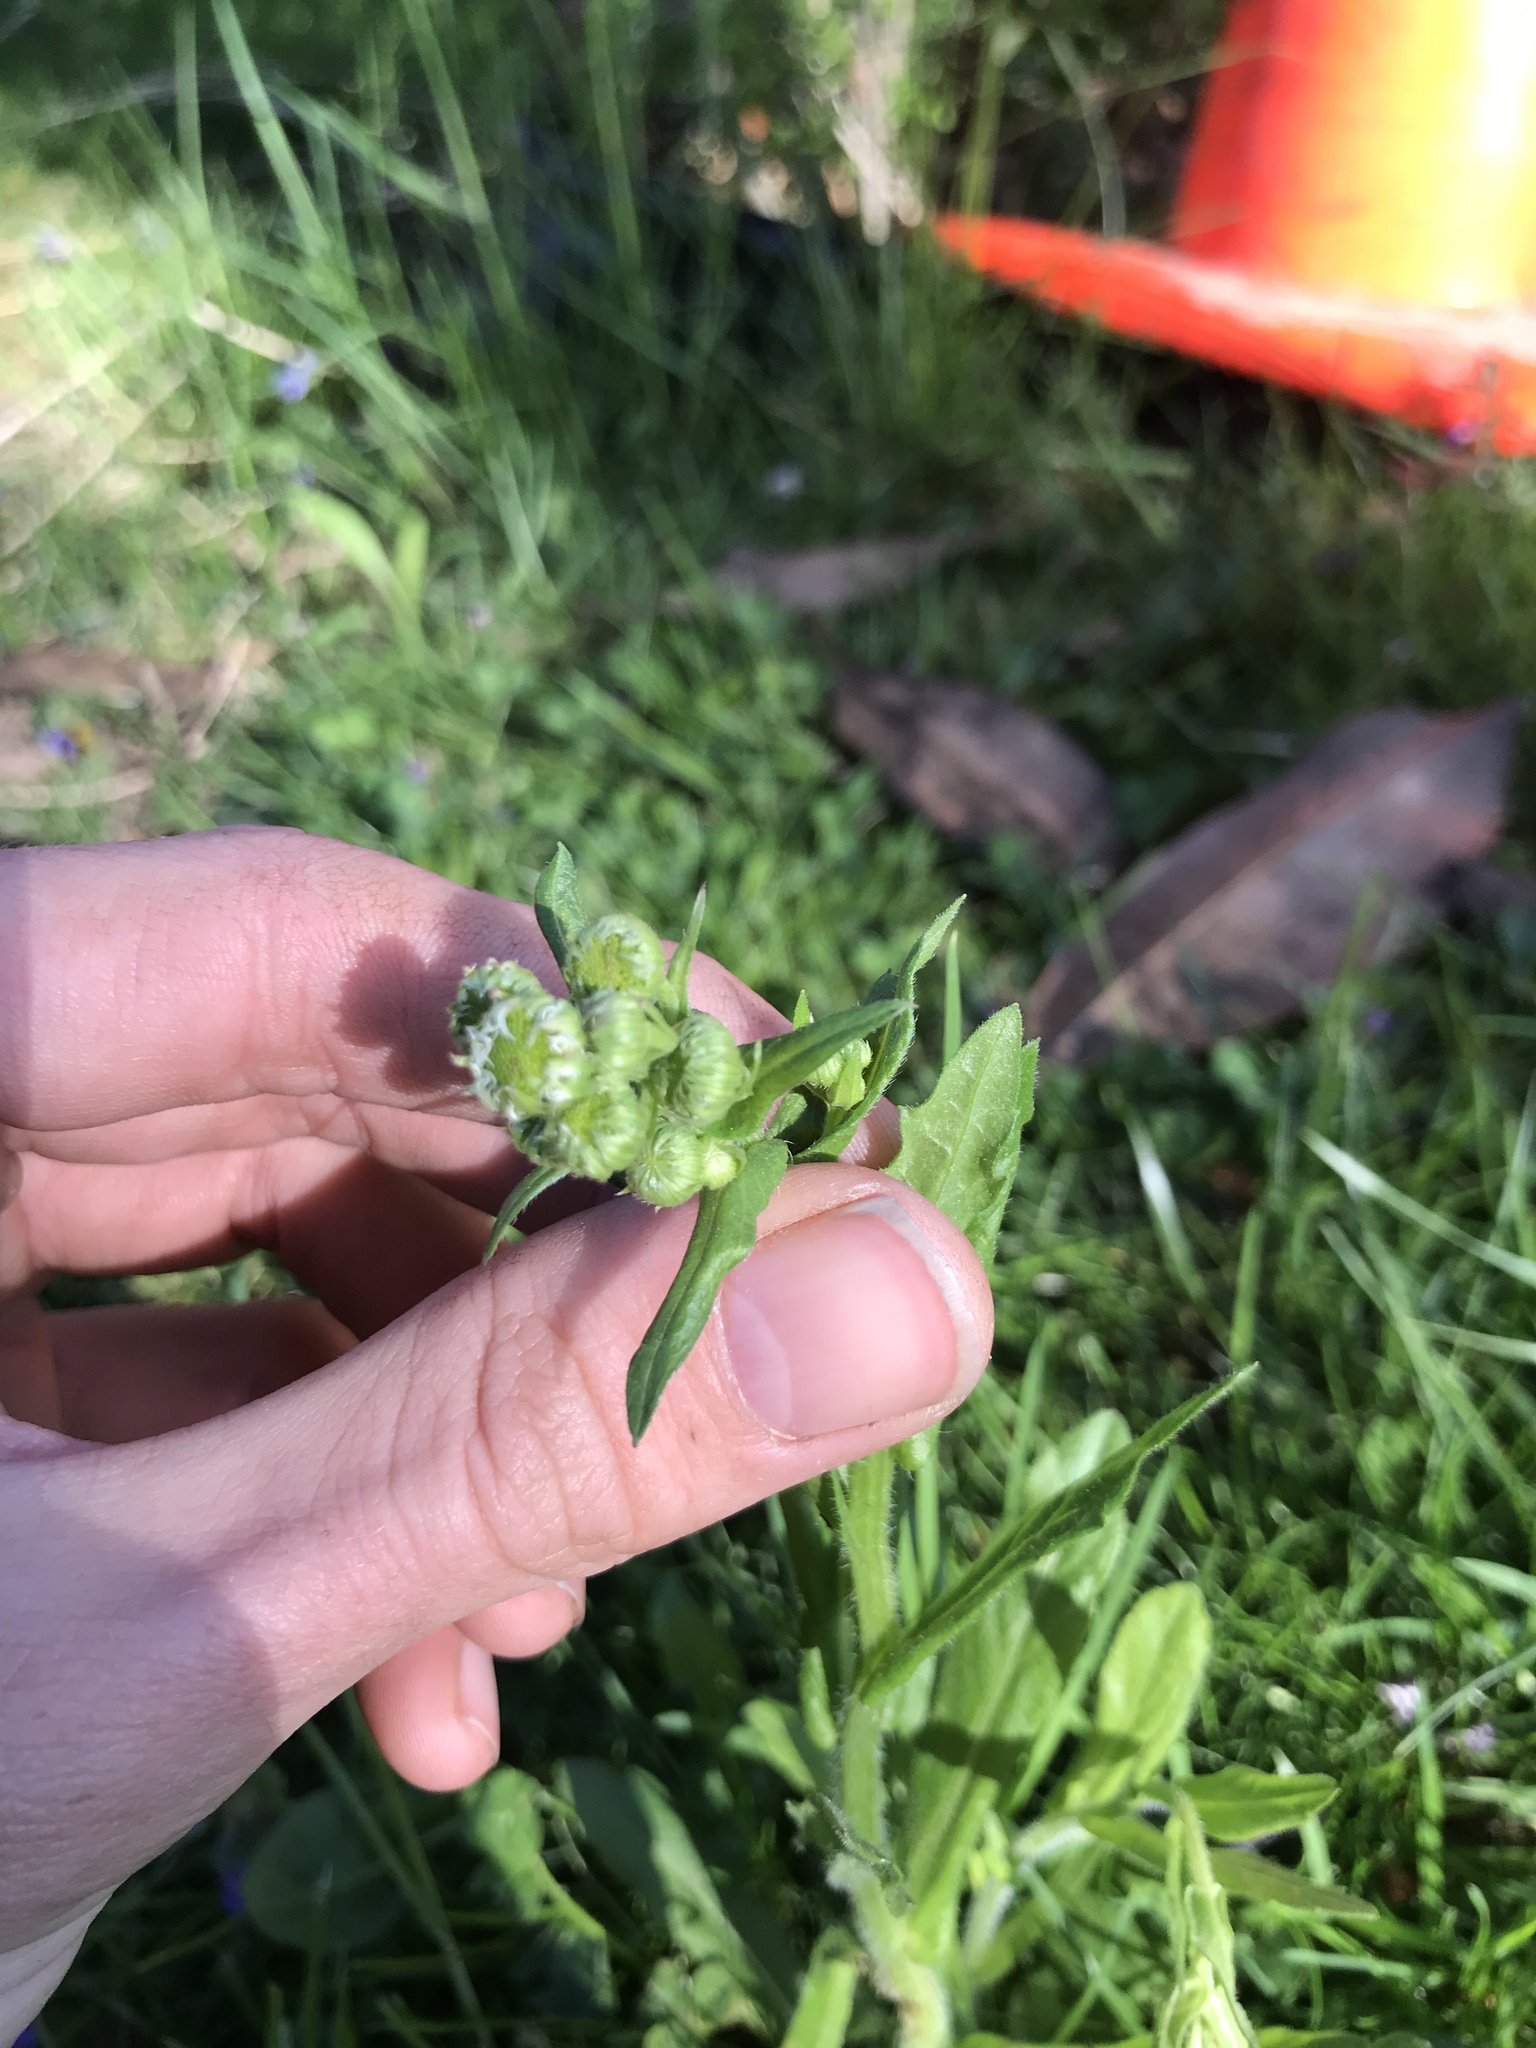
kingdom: Plantae
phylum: Tracheophyta
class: Magnoliopsida
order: Asterales
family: Asteraceae
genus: Erigeron
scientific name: Erigeron philadelphicus
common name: Robin's-plantain
